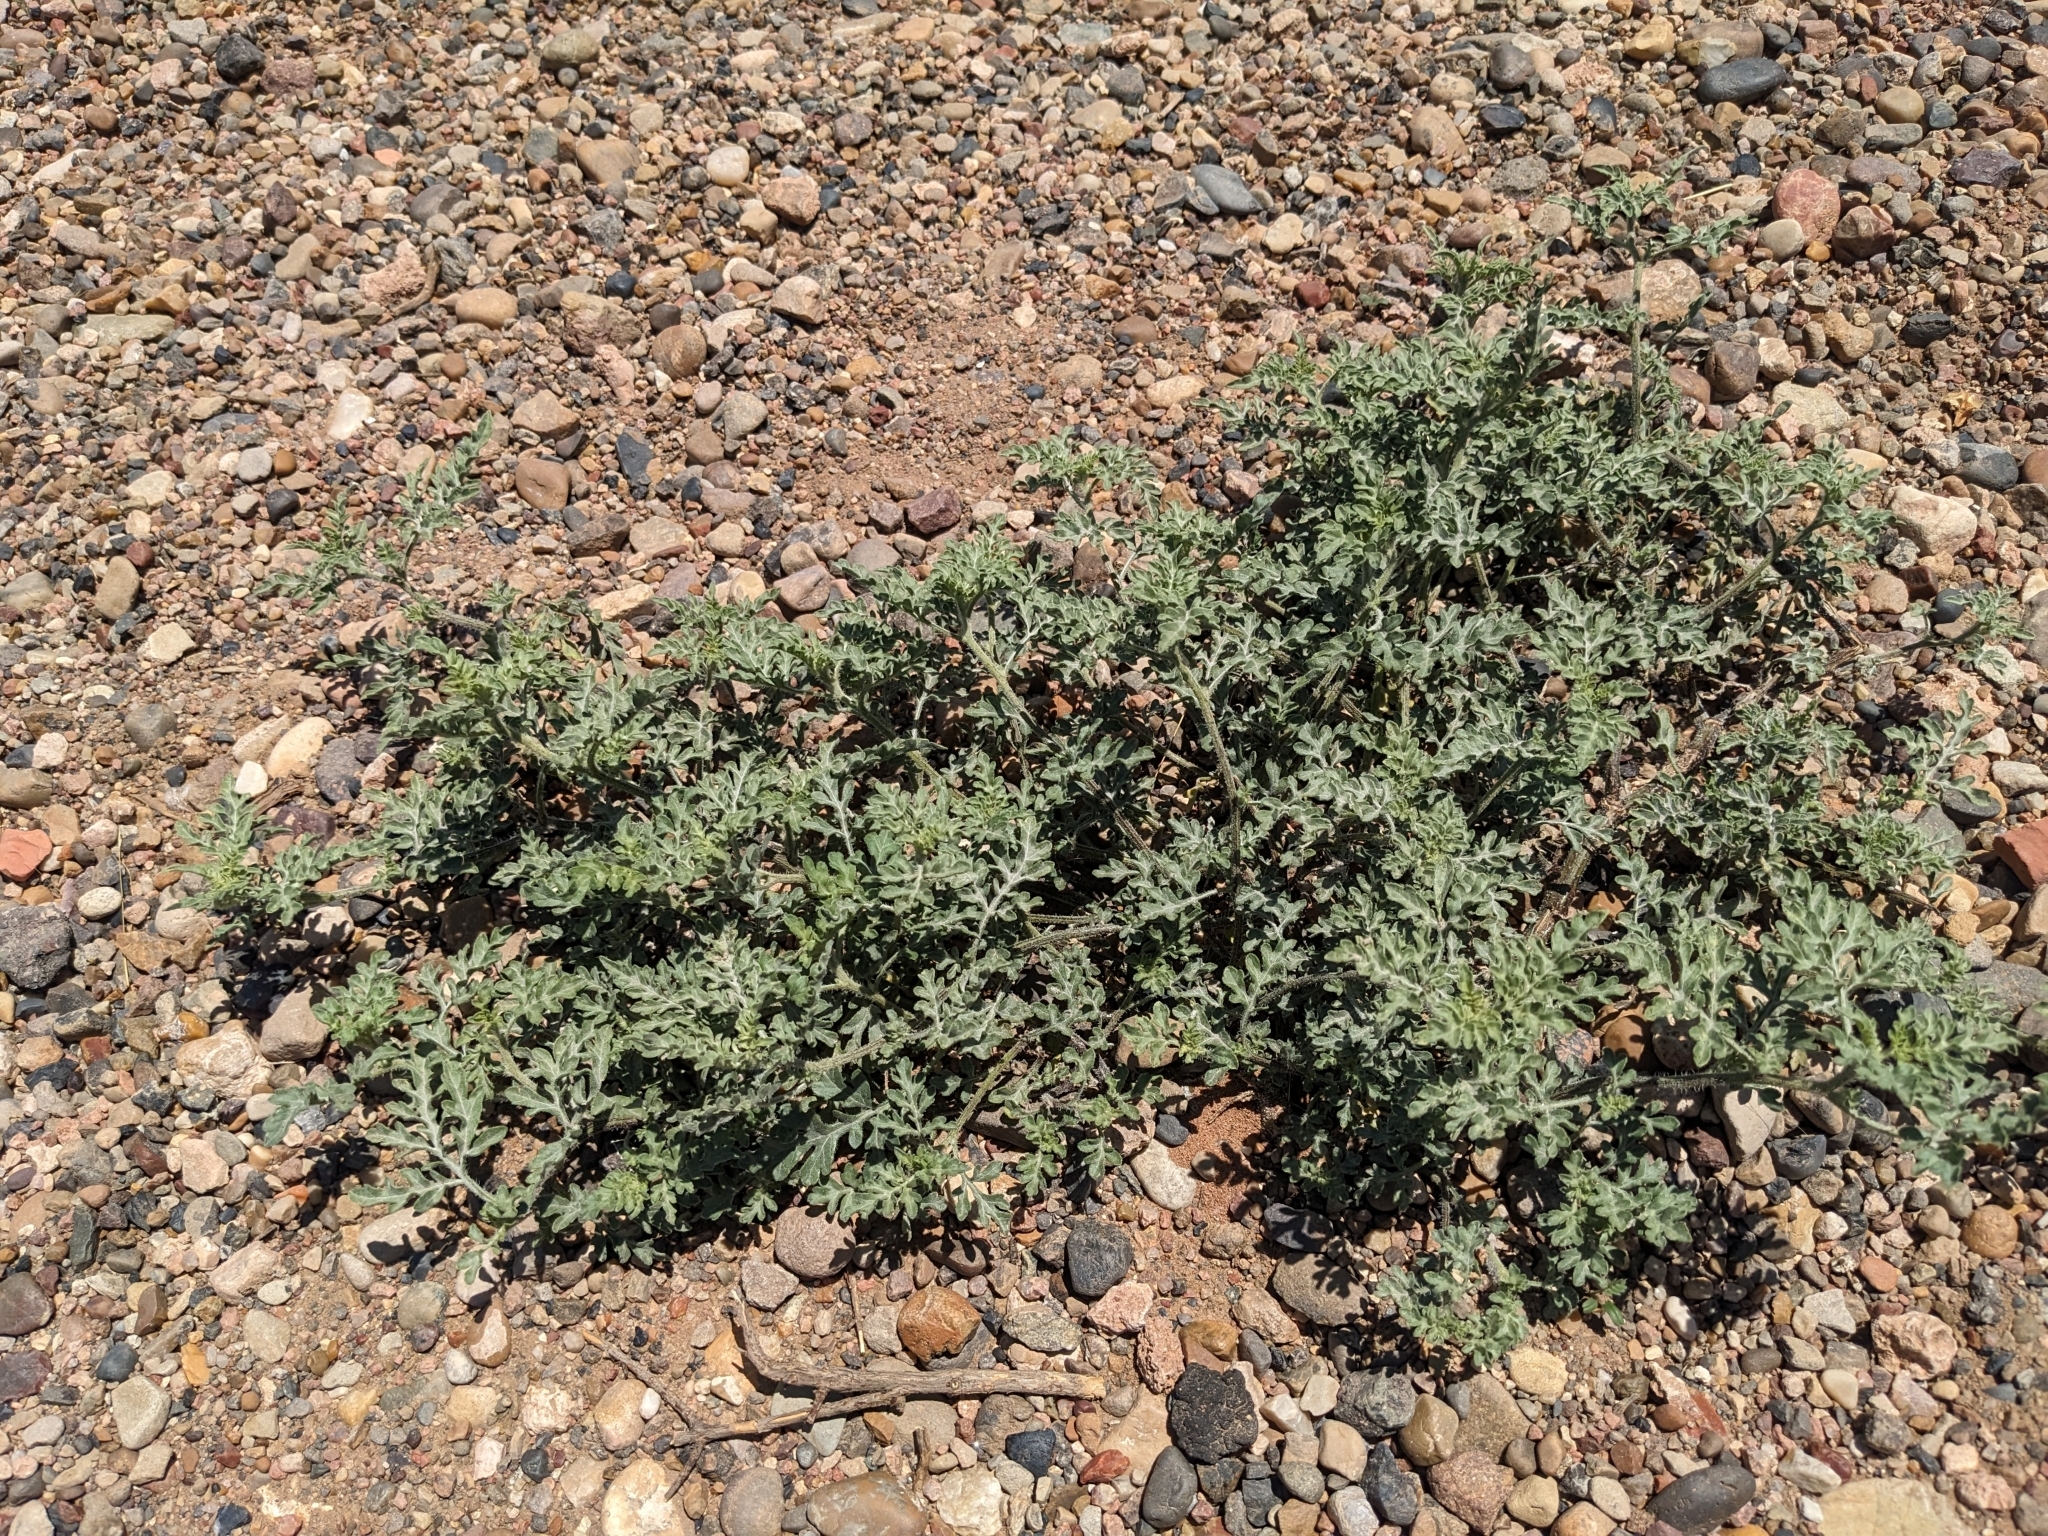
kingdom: Plantae
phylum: Tracheophyta
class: Magnoliopsida
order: Asterales
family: Asteraceae
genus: Ambrosia
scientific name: Ambrosia acanthicarpa
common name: Hooker's bur ragweed
